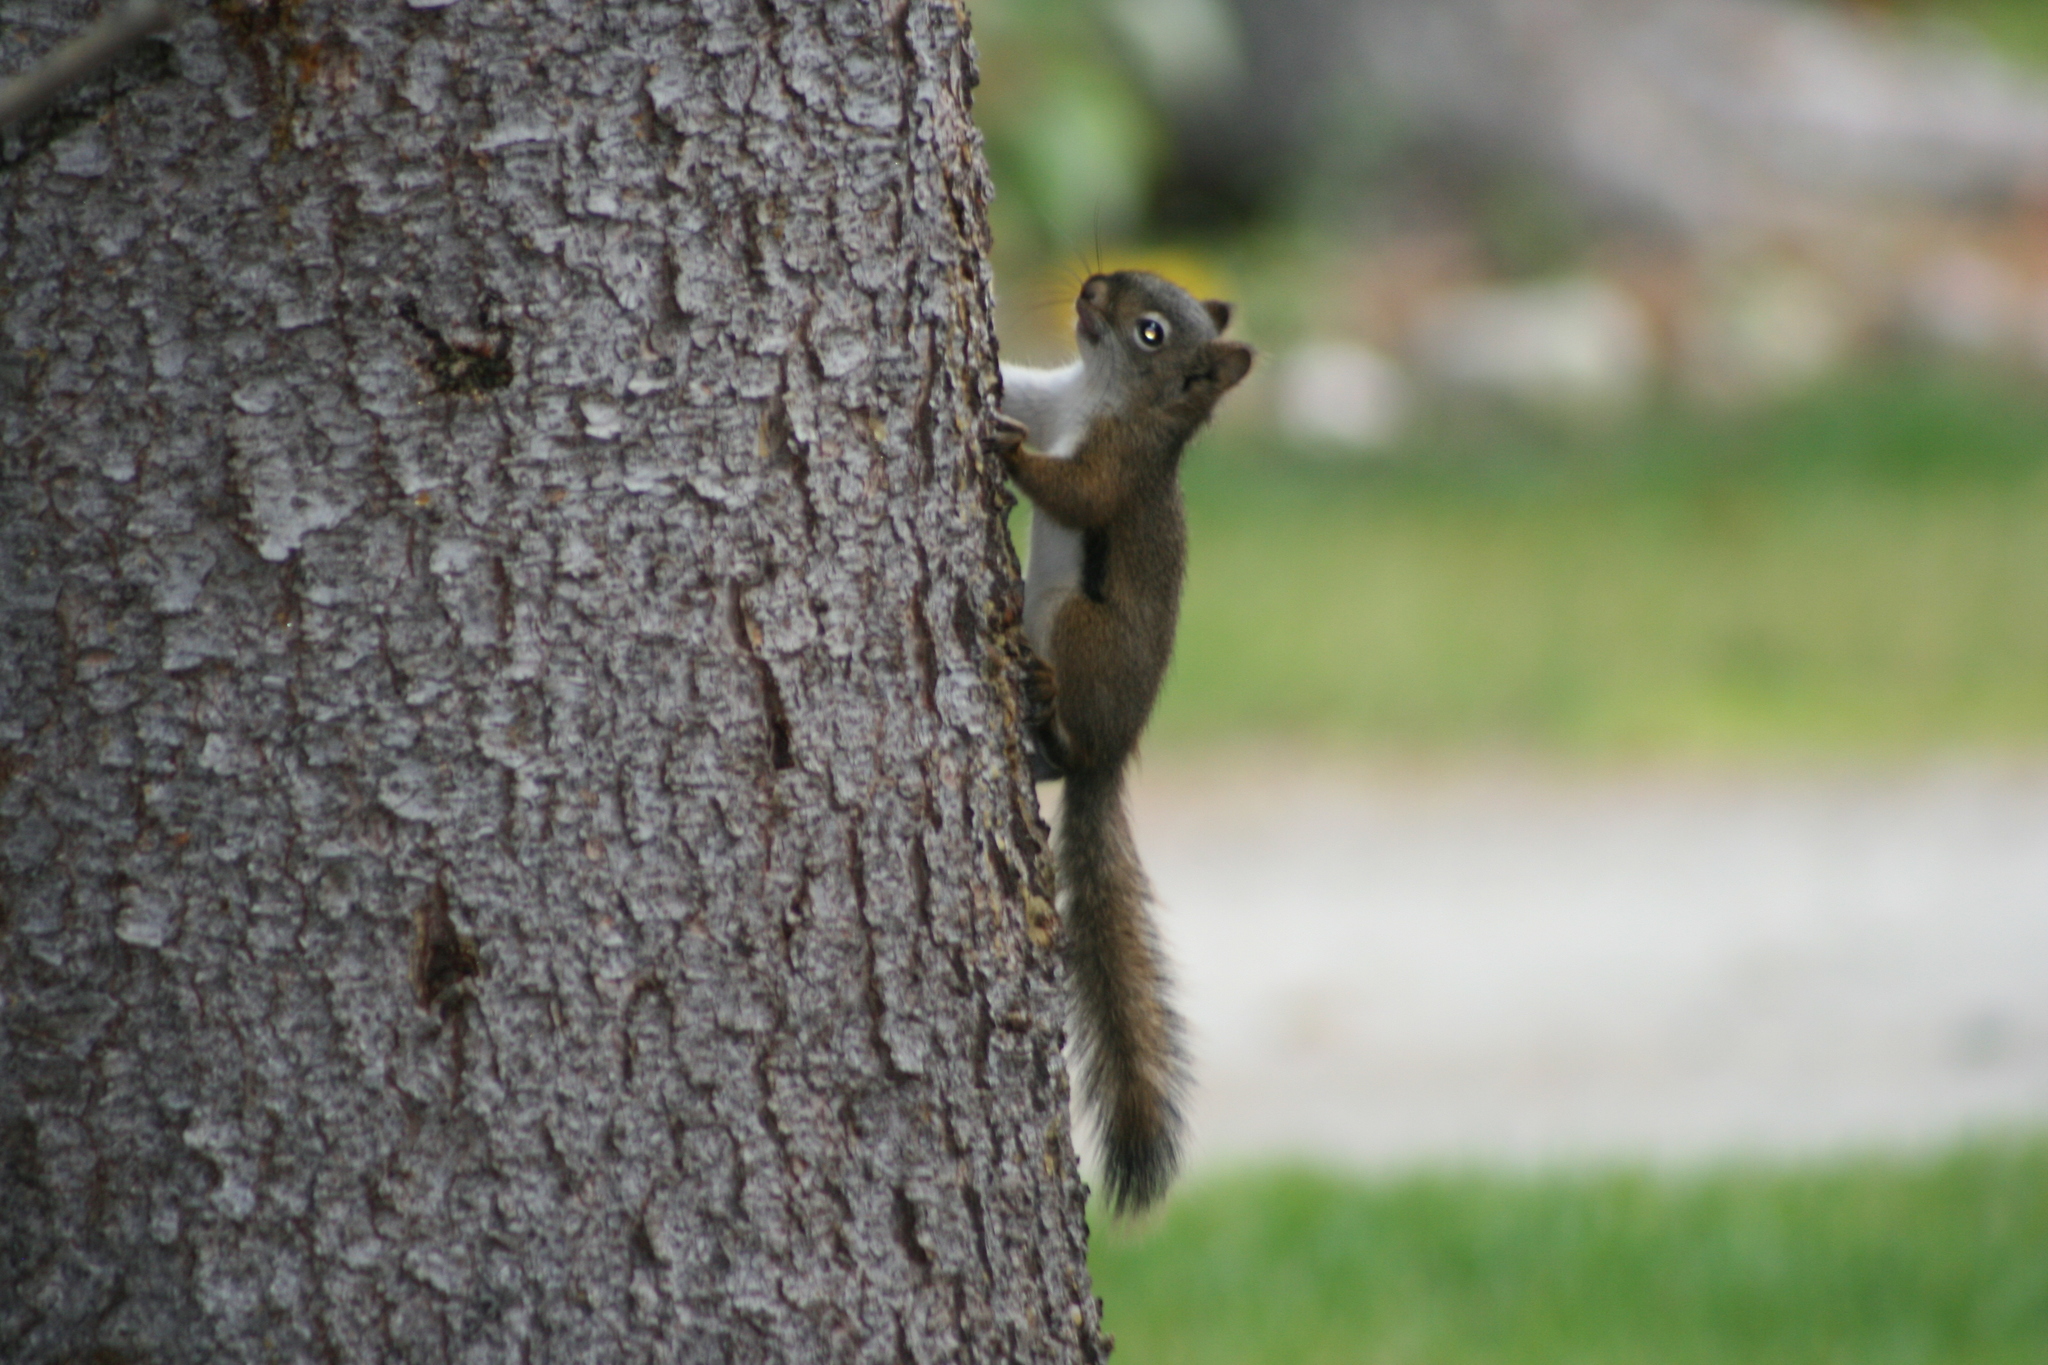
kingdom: Animalia
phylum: Chordata
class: Mammalia
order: Rodentia
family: Sciuridae
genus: Tamiasciurus
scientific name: Tamiasciurus hudsonicus
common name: Red squirrel
